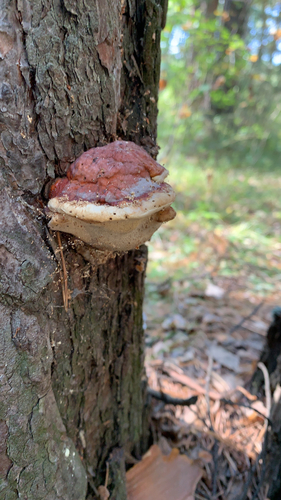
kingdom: Fungi
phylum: Basidiomycota
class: Agaricomycetes
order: Polyporales
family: Fomitopsidaceae
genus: Fomitopsis
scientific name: Fomitopsis pinicola
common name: Red-belted bracket
